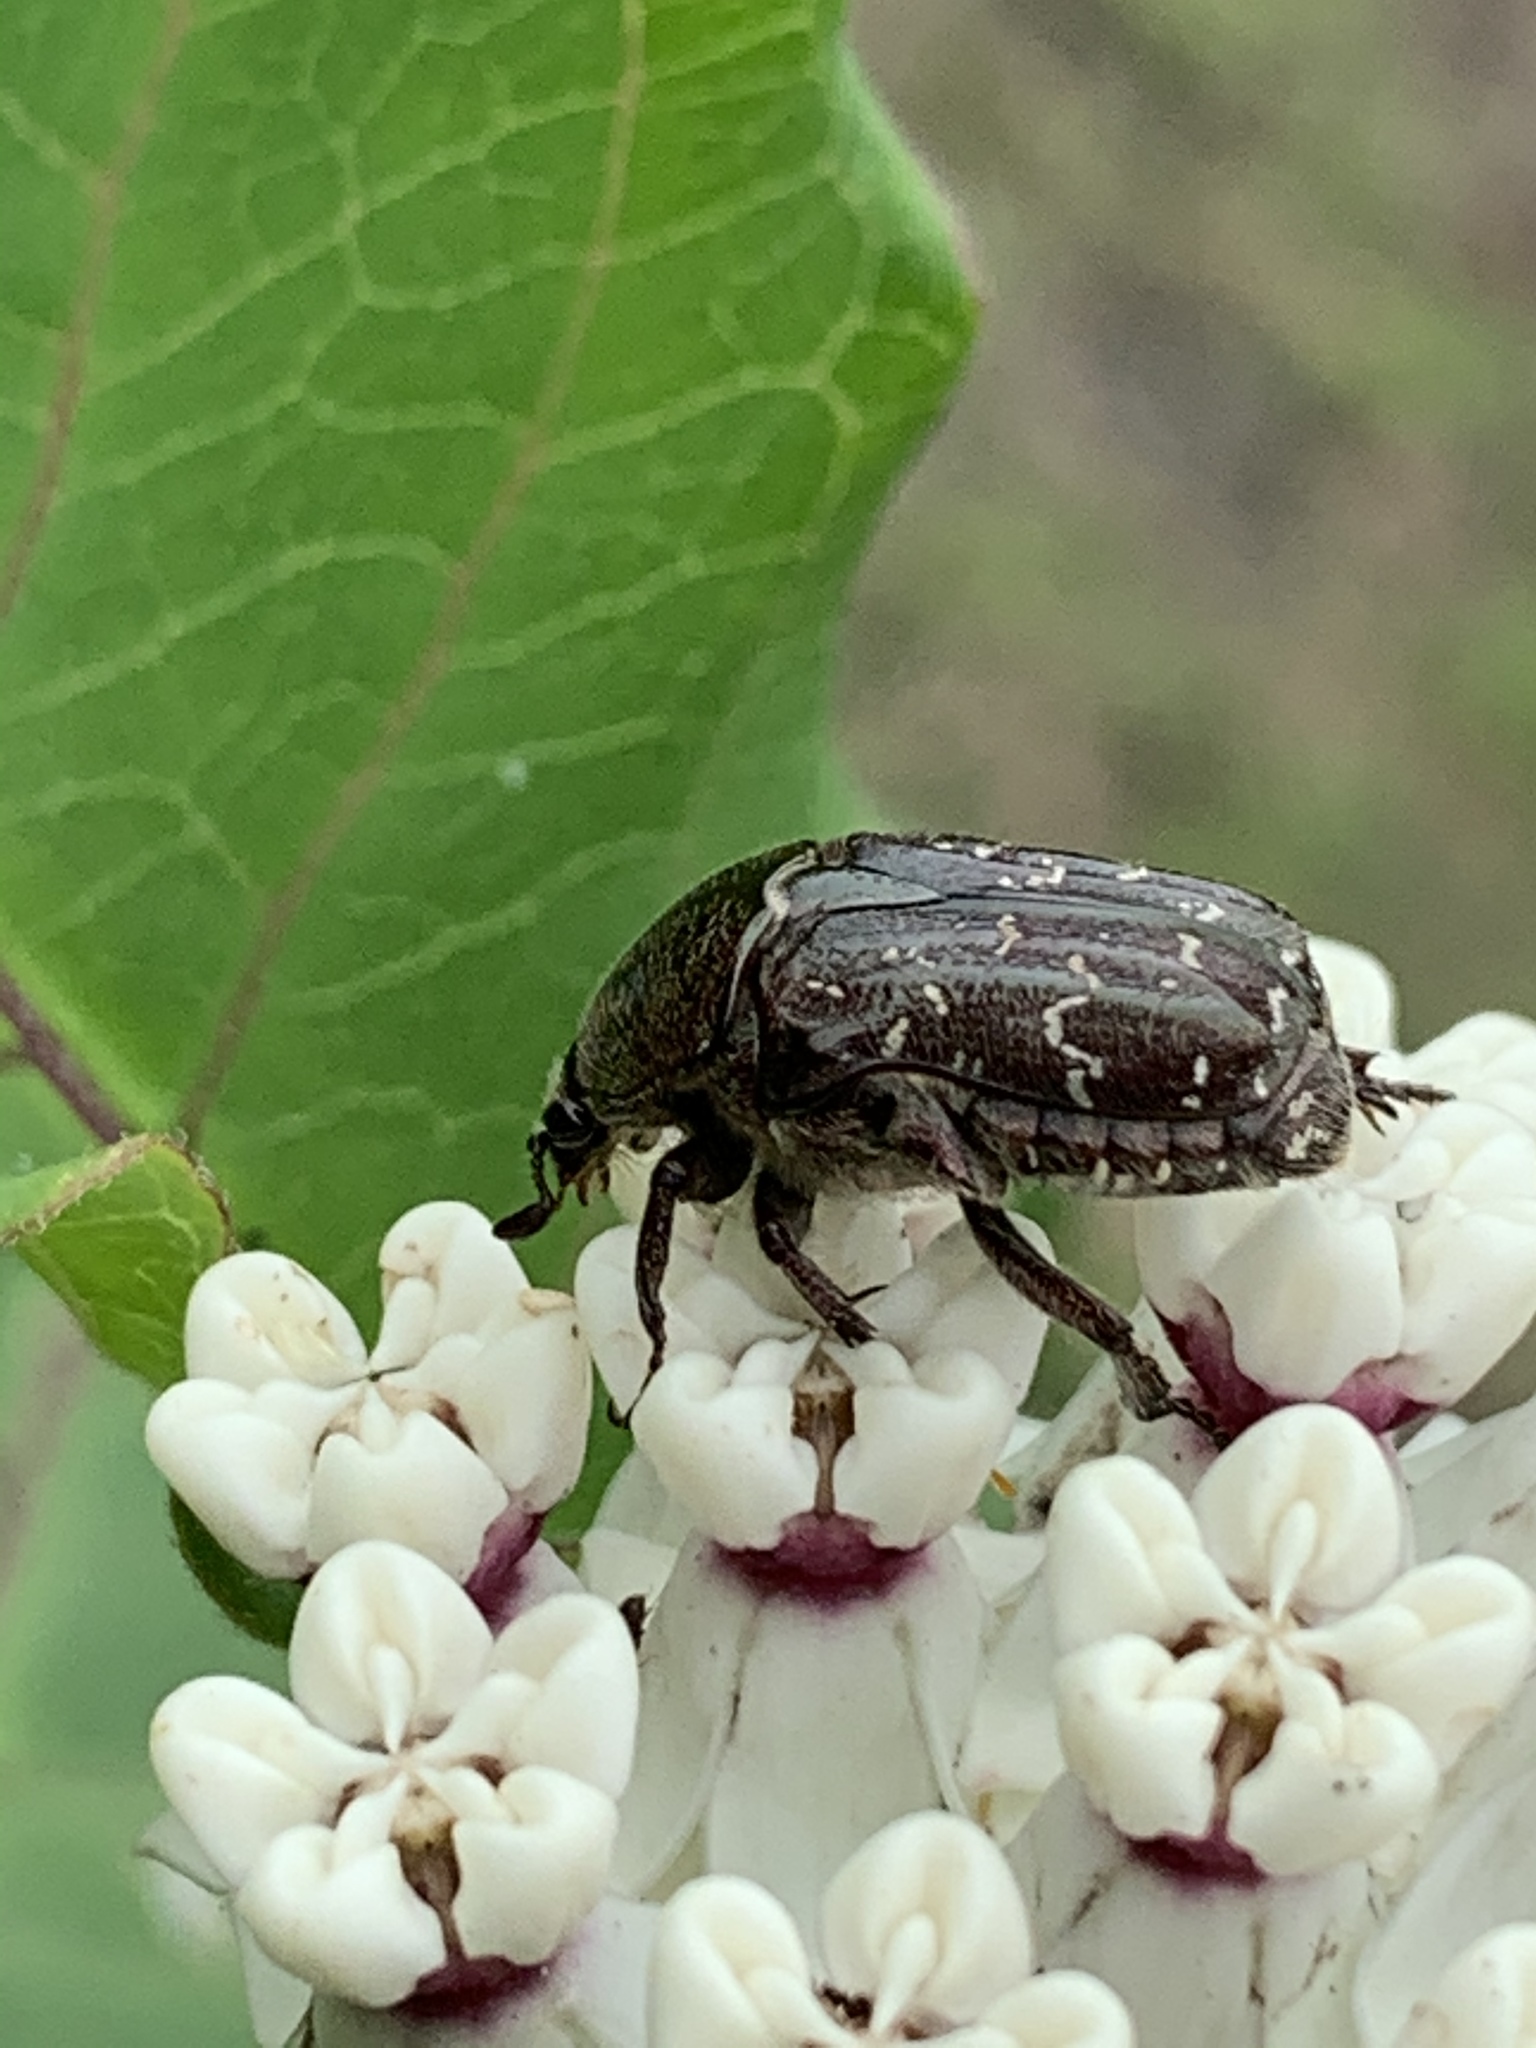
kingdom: Animalia
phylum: Arthropoda
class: Insecta
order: Coleoptera
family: Scarabaeidae
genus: Euphoria
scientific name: Euphoria sepulcralis
